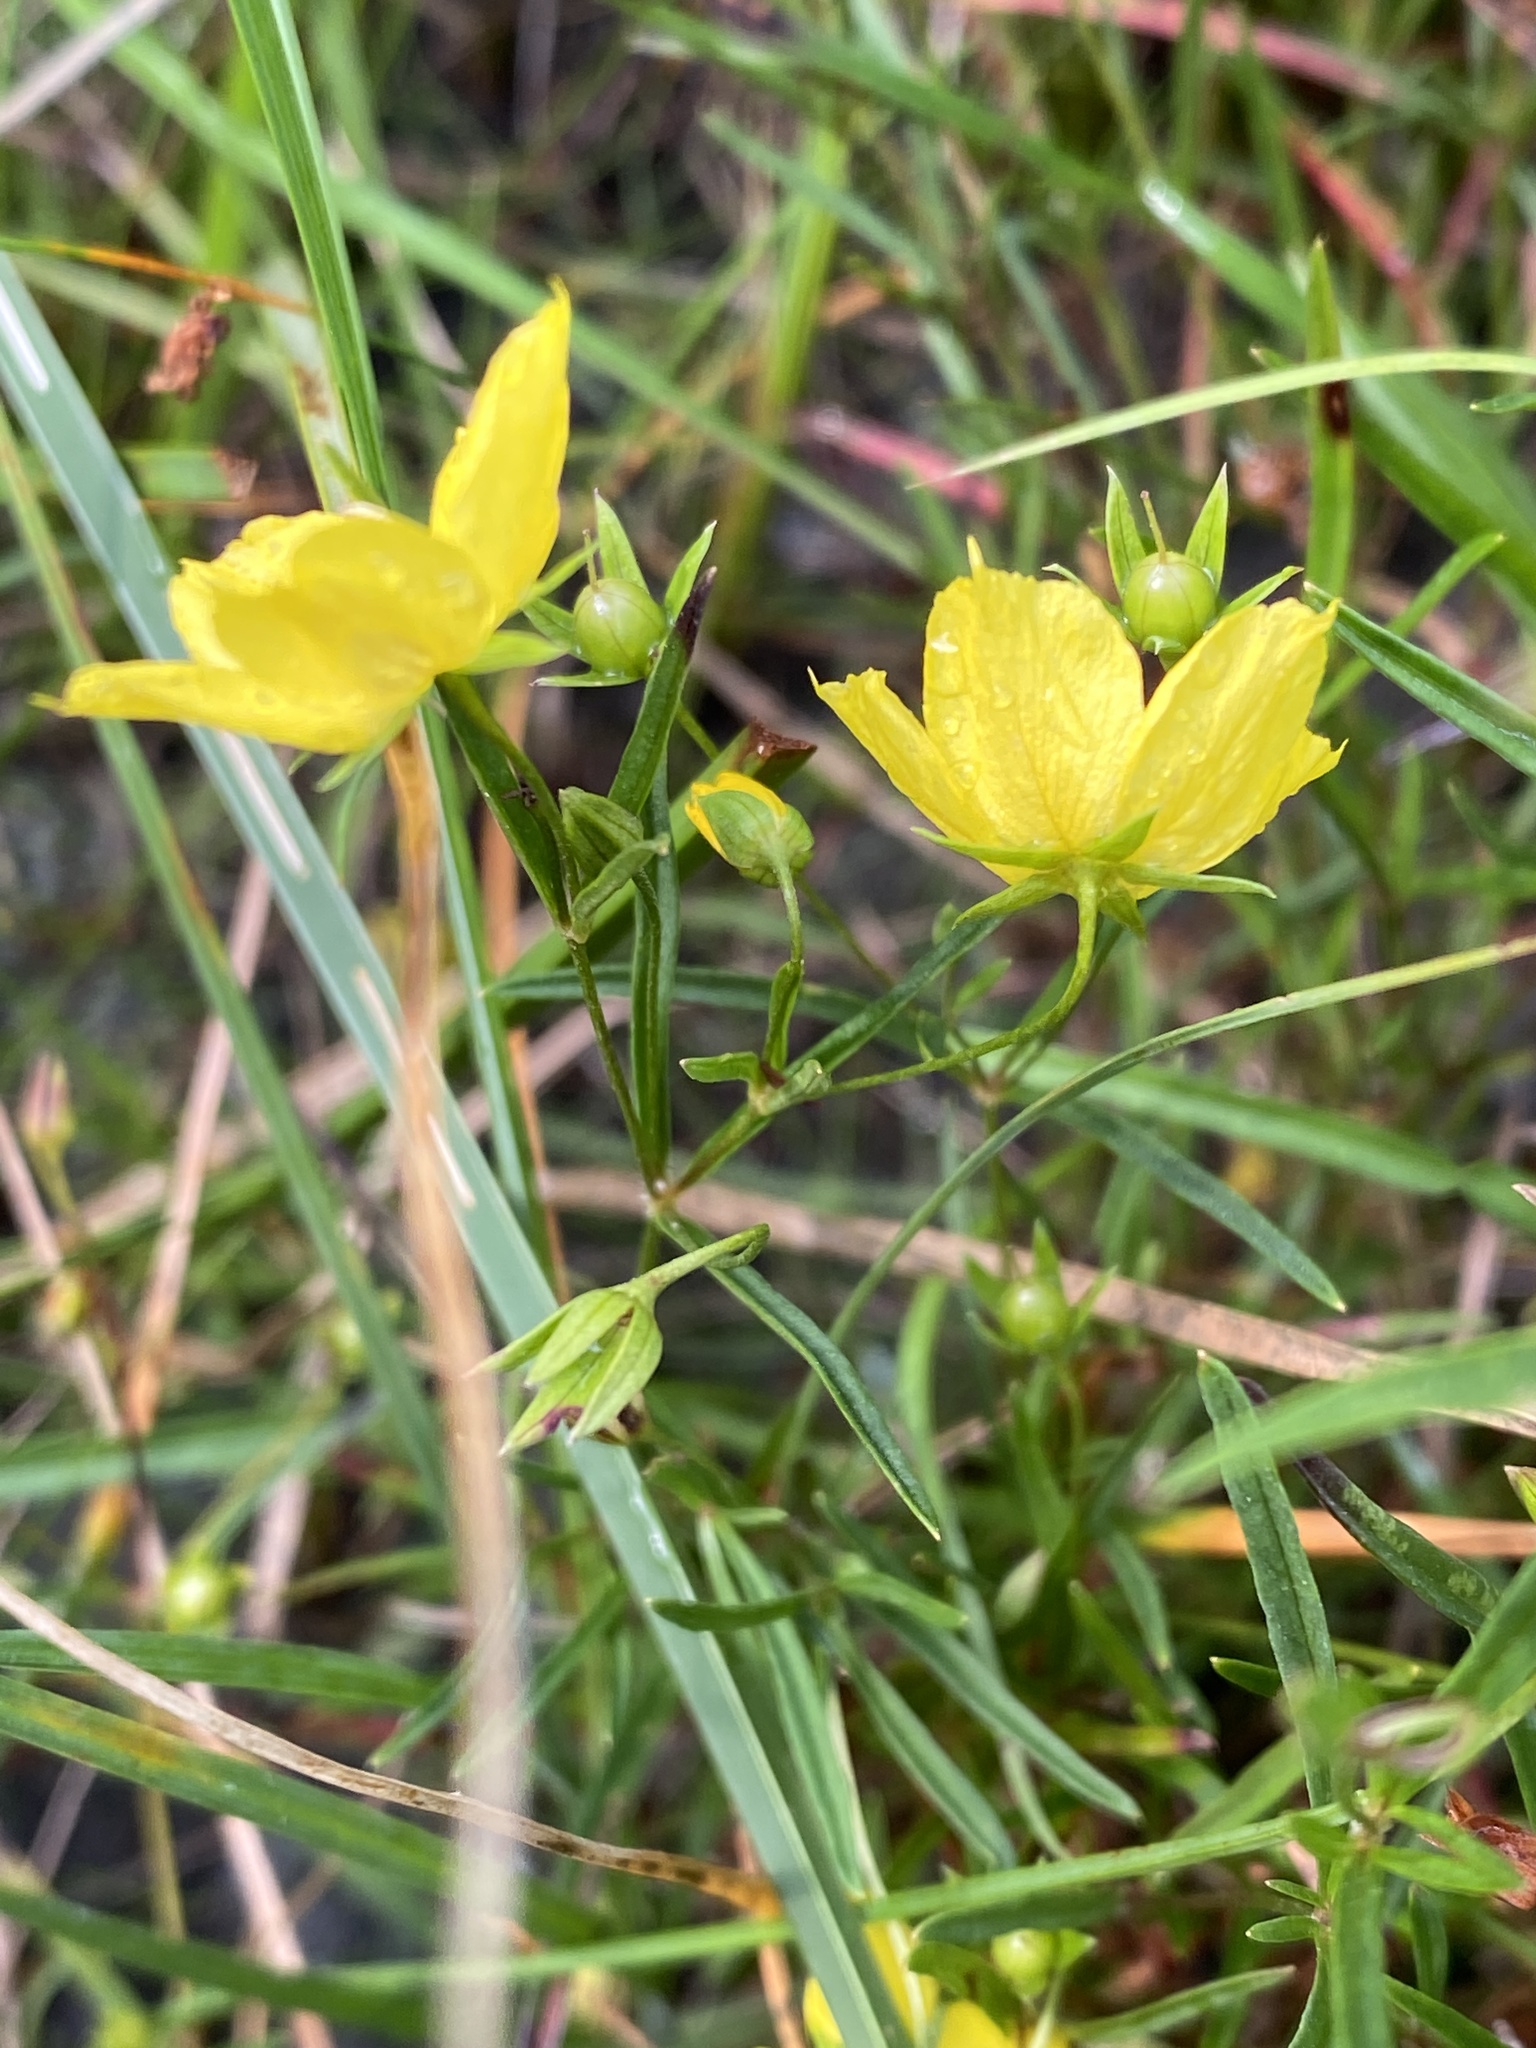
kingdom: Plantae
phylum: Tracheophyta
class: Magnoliopsida
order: Ericales
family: Primulaceae
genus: Lysimachia
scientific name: Lysimachia quadriflora
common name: Four-flowered loosestrife
